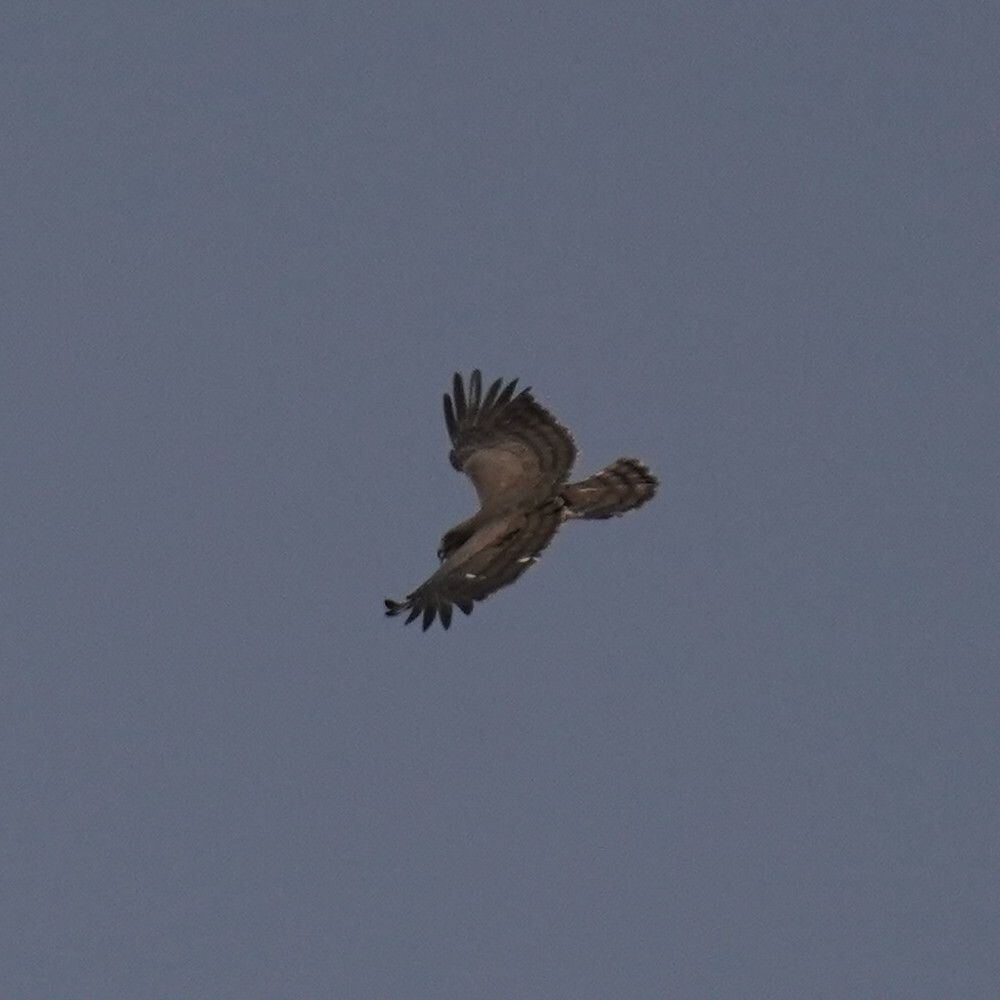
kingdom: Animalia
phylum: Chordata
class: Aves
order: Accipitriformes
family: Accipitridae
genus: Circaetus
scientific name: Circaetus beaudouini
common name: Beaudouin's snake eagle
